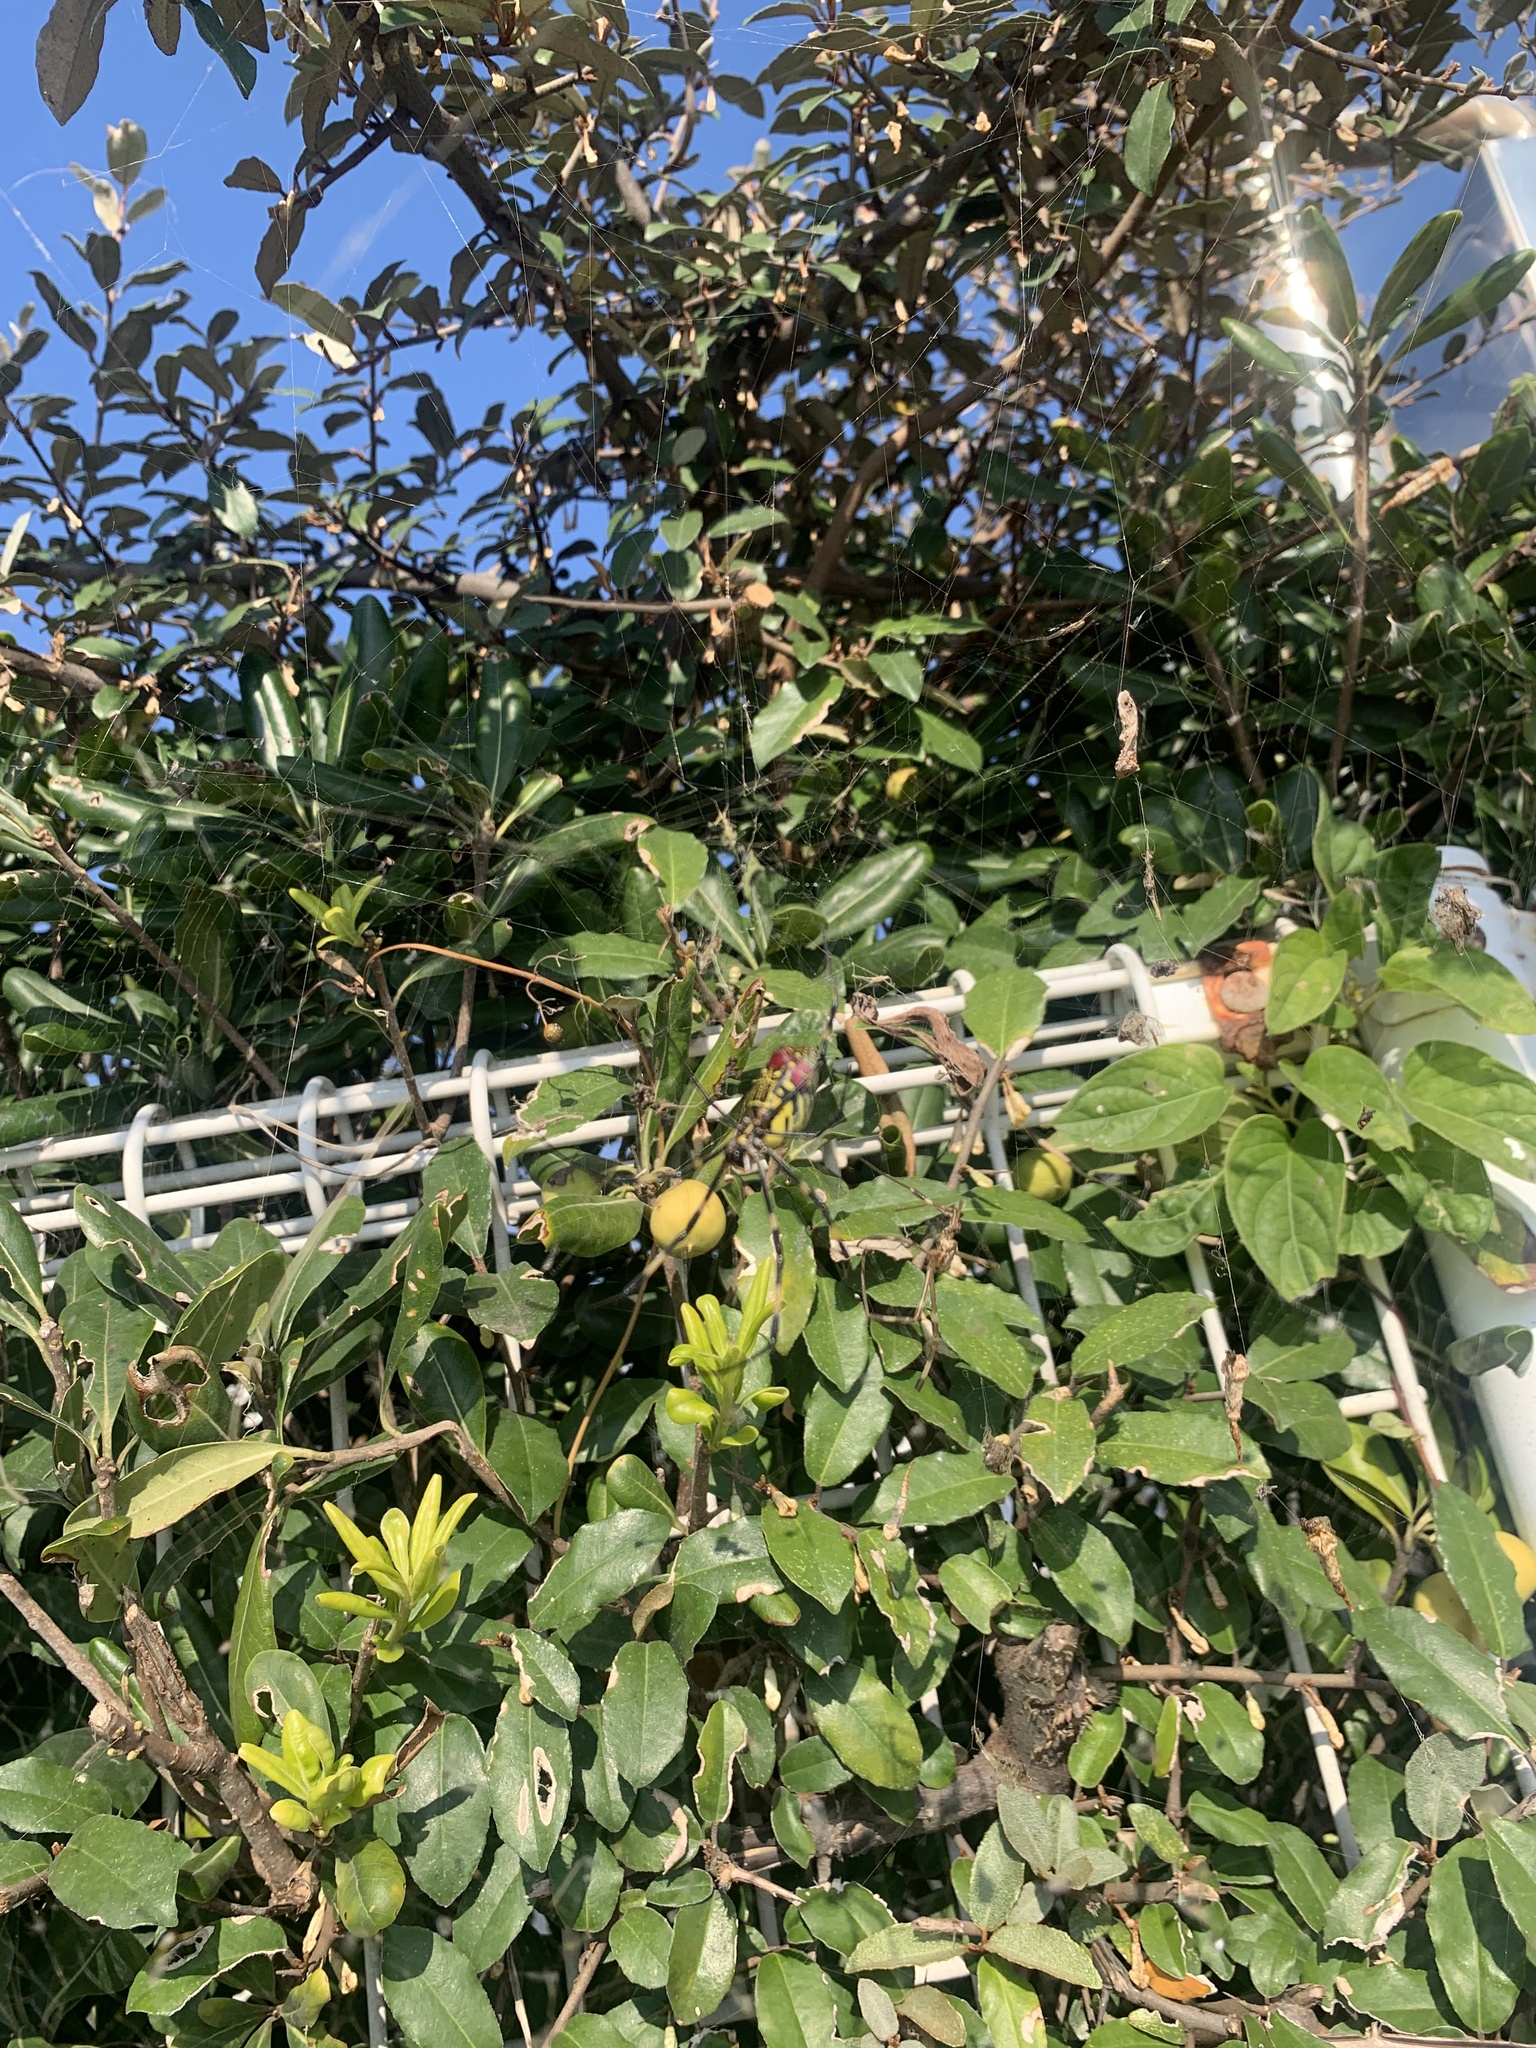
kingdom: Animalia
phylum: Arthropoda
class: Arachnida
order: Araneae
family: Araneidae
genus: Trichonephila
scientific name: Trichonephila clavata
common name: Jorō spider
